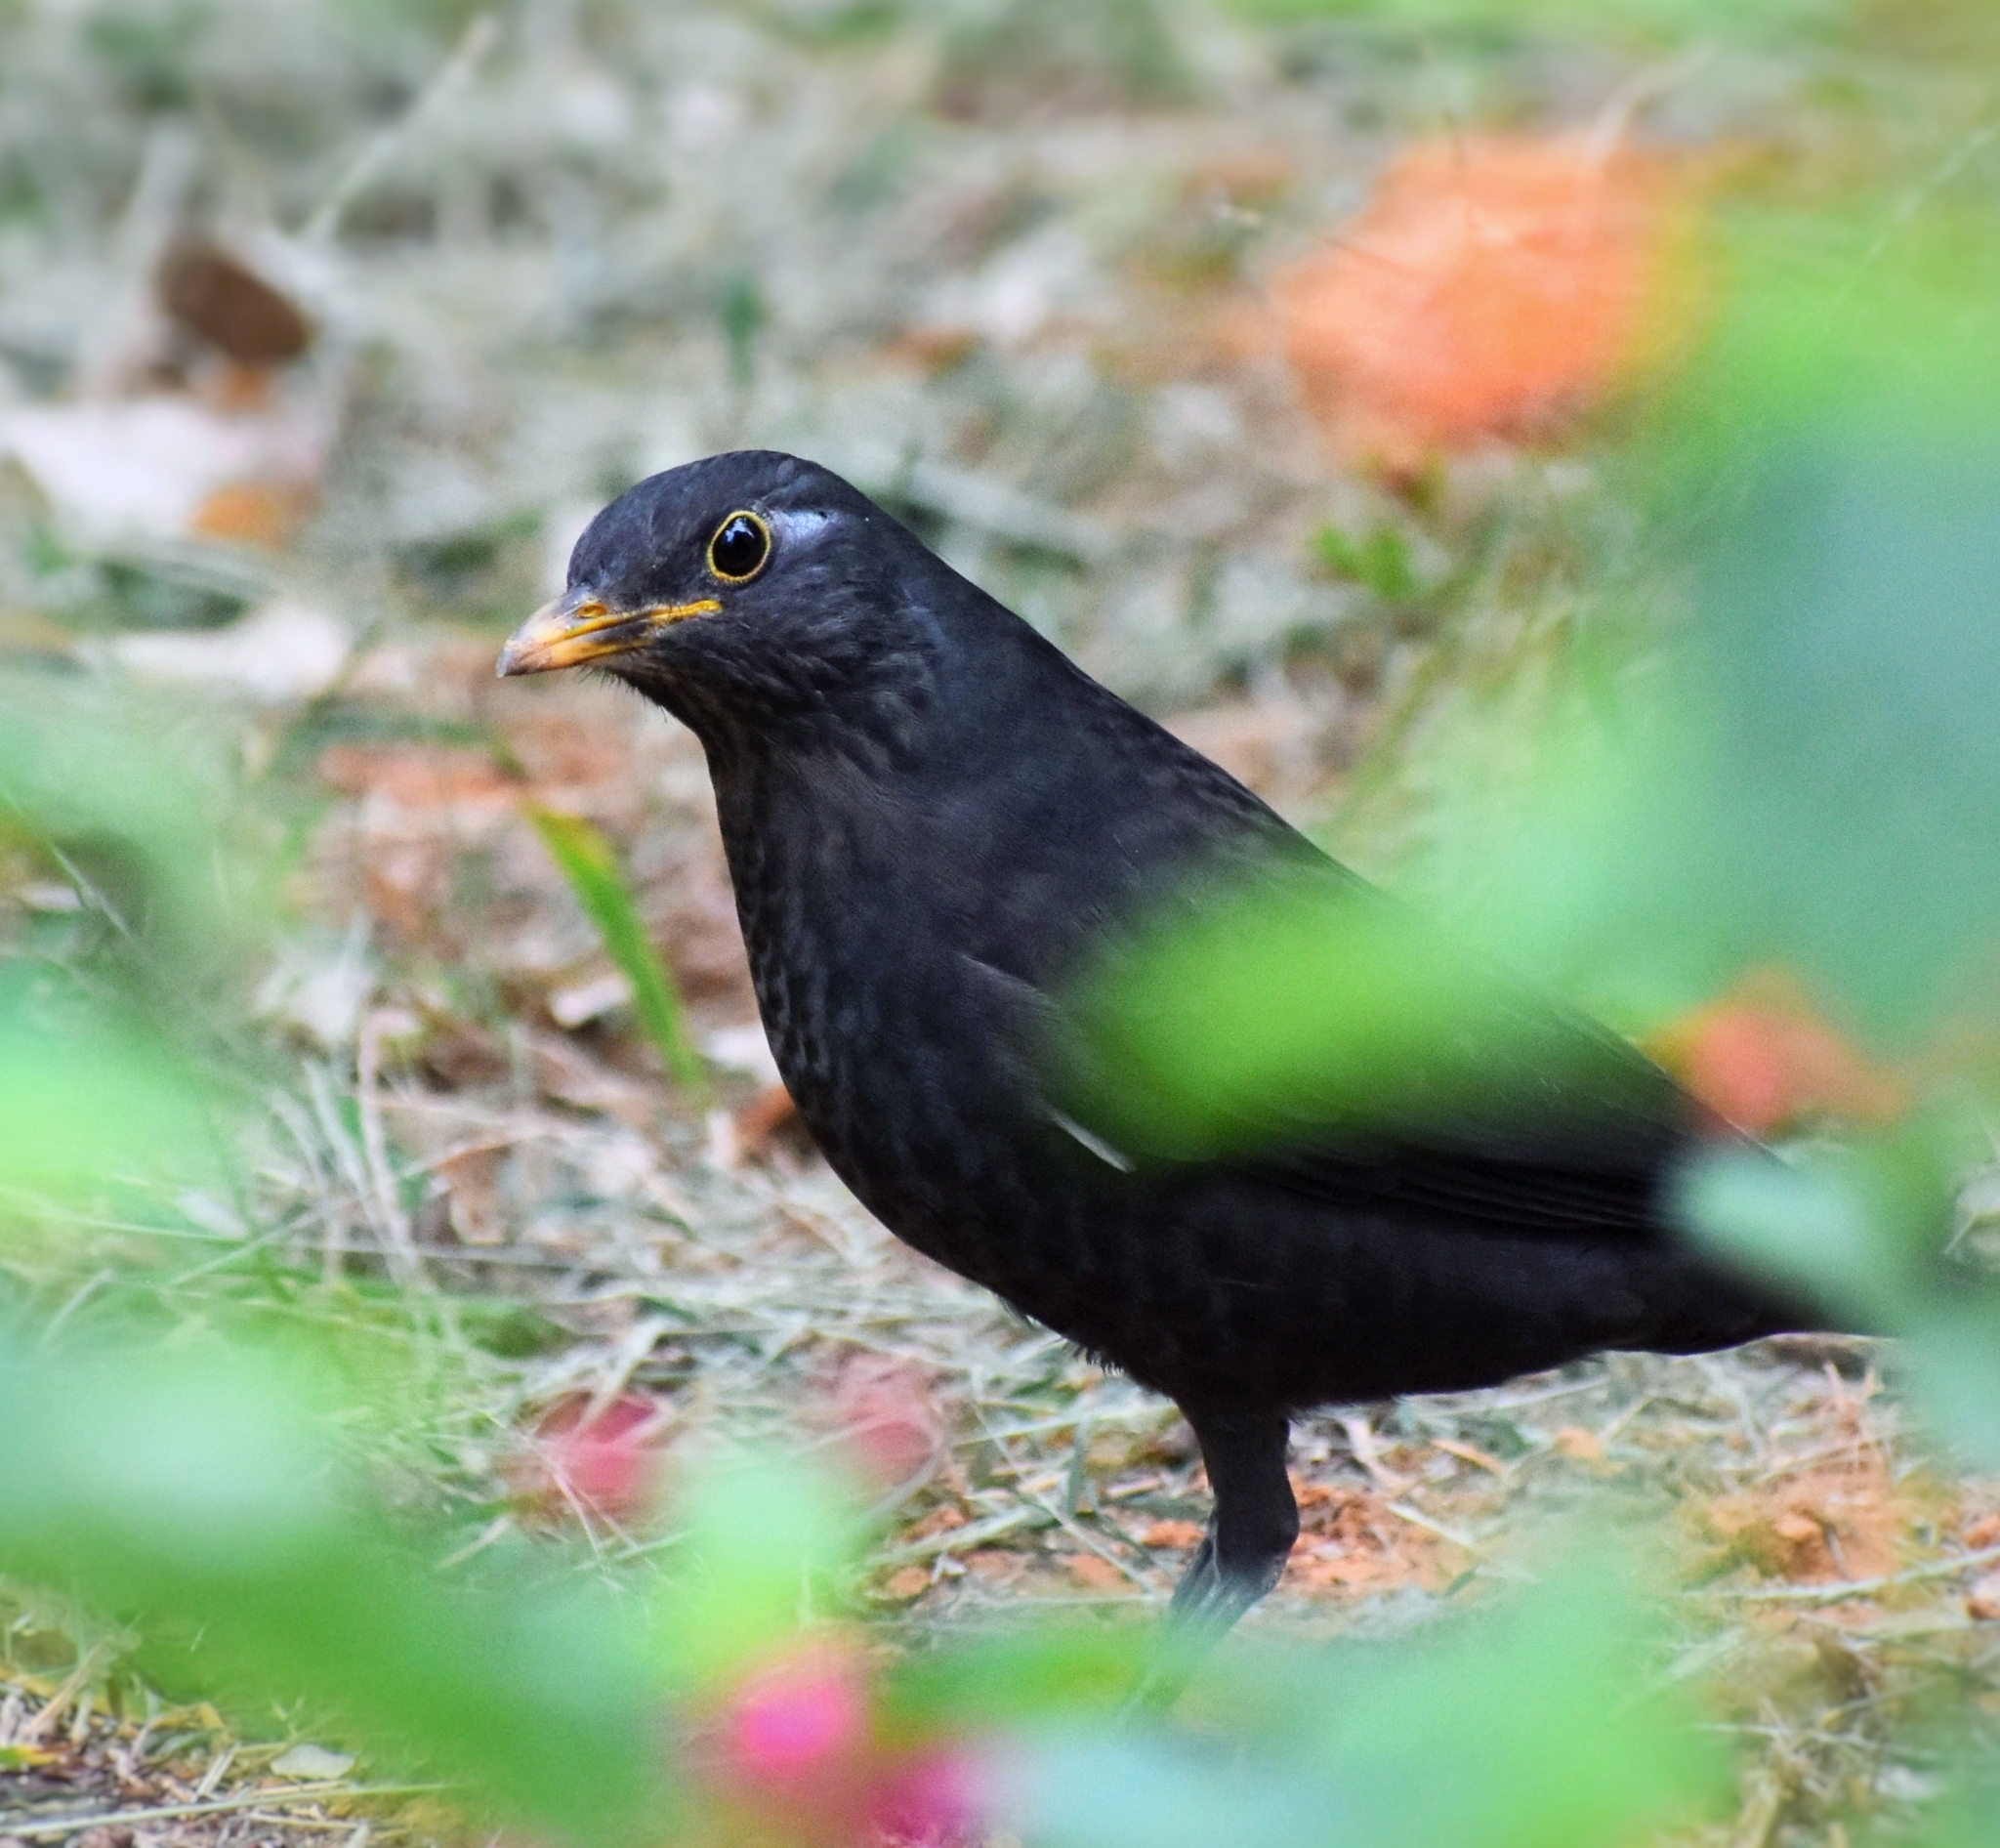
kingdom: Animalia
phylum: Chordata
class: Aves
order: Passeriformes
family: Turdidae
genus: Turdus
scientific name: Turdus mandarinus
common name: Chinese blackbird
